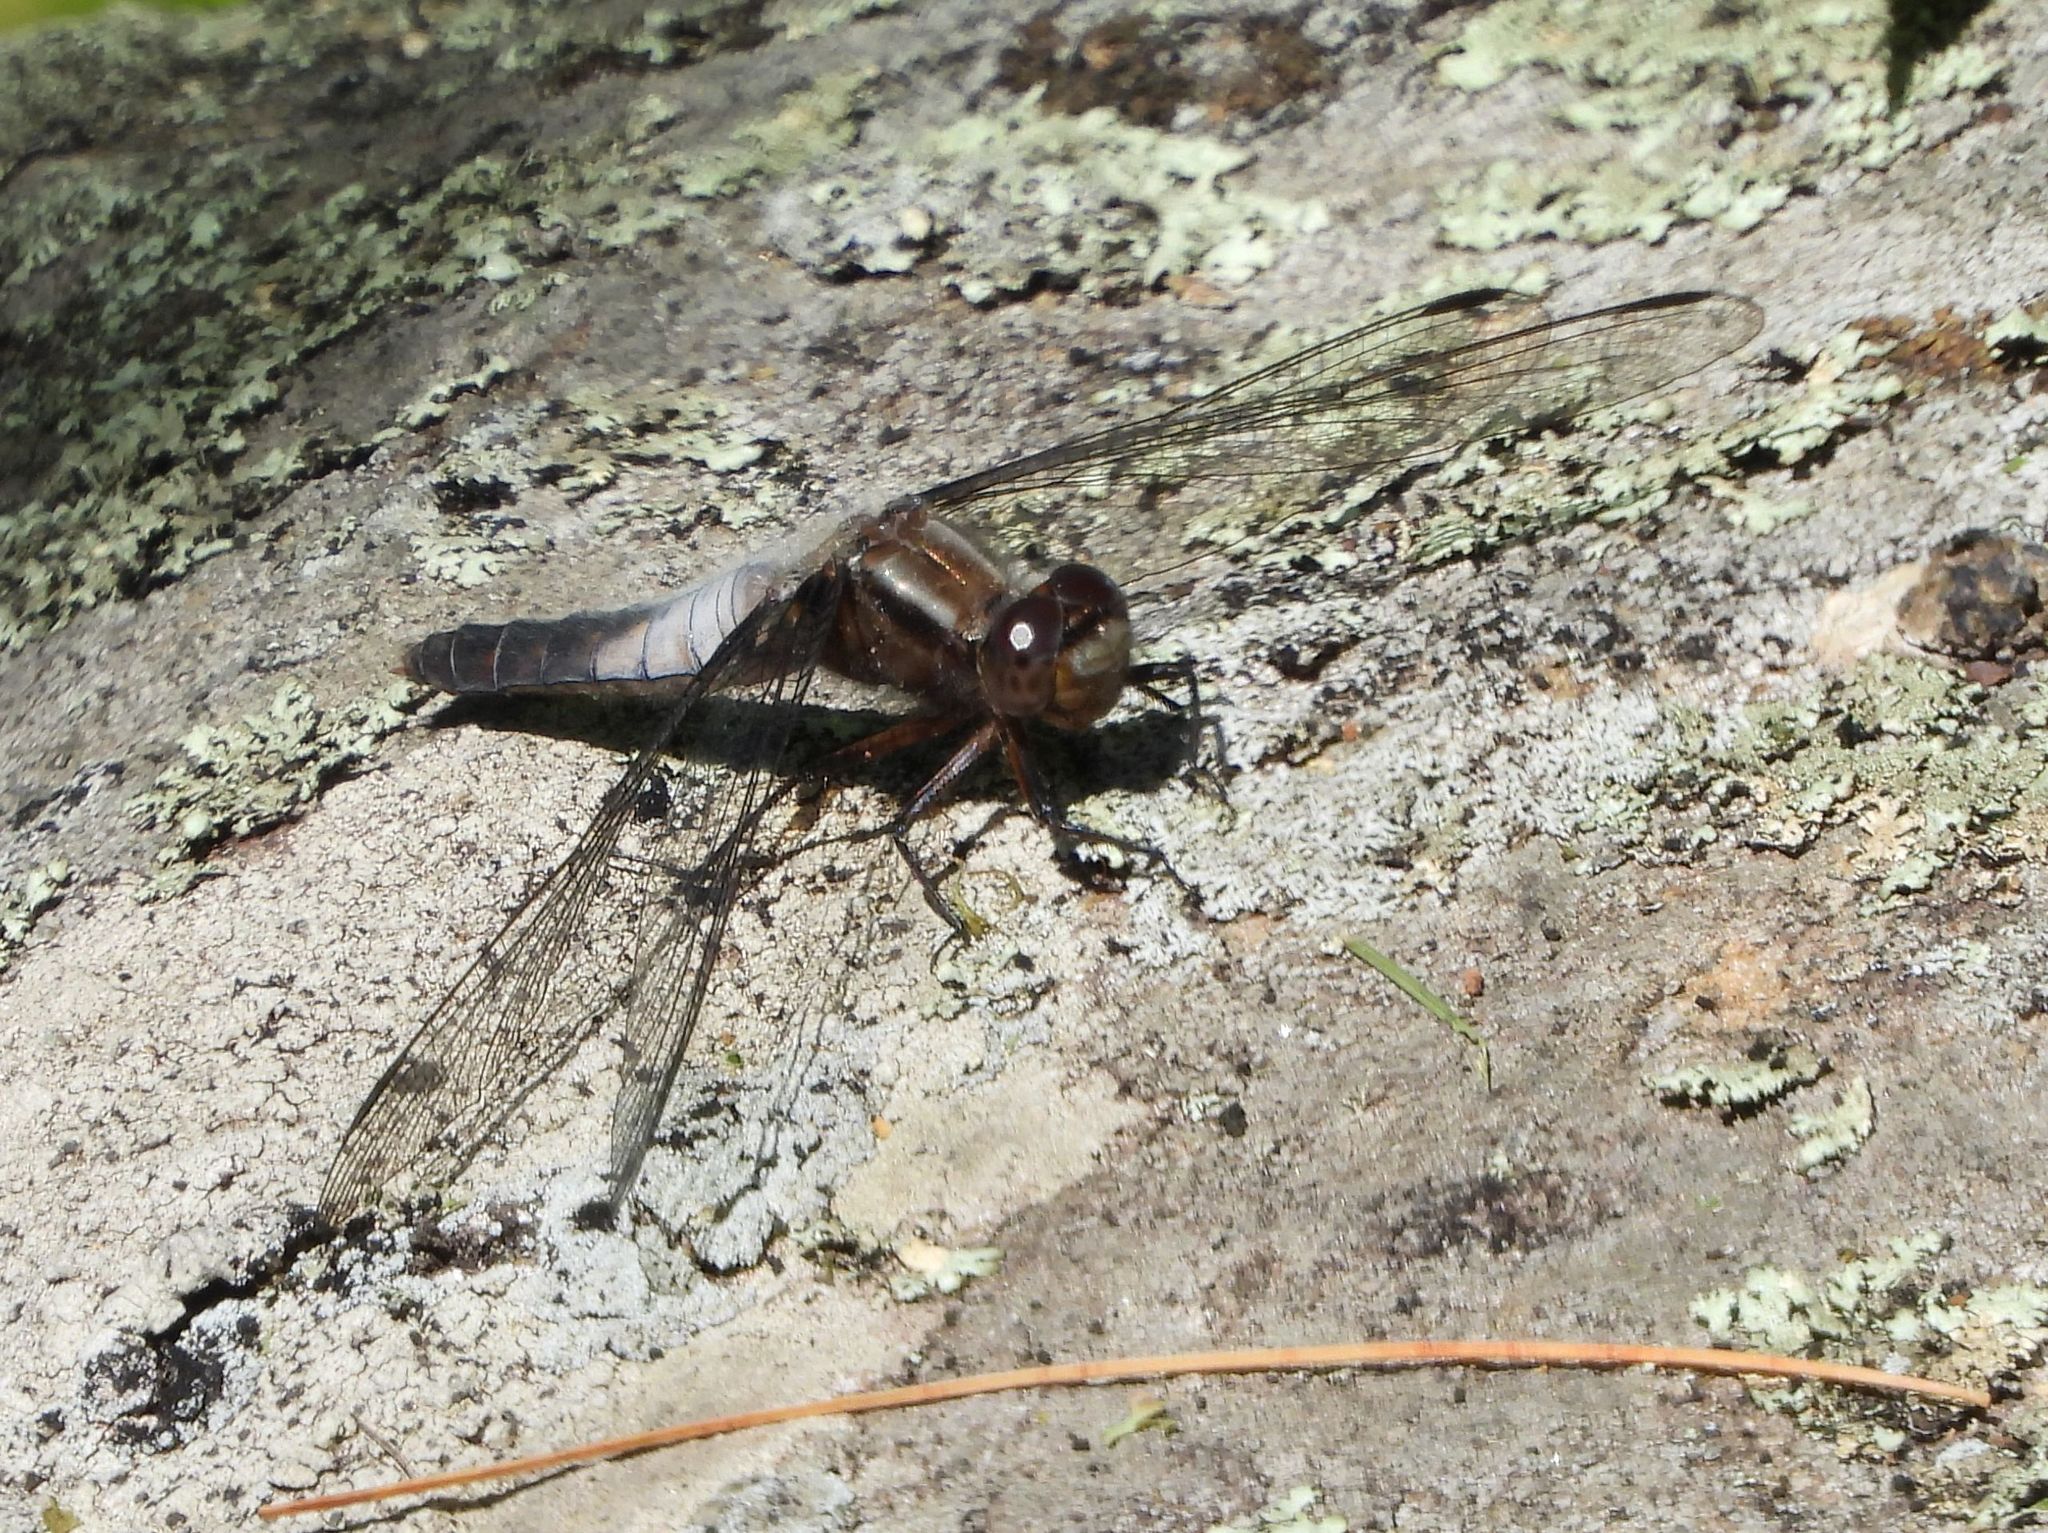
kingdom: Animalia
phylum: Arthropoda
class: Insecta
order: Odonata
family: Libellulidae
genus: Ladona
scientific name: Ladona julia
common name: Chalk-fronted corporal
